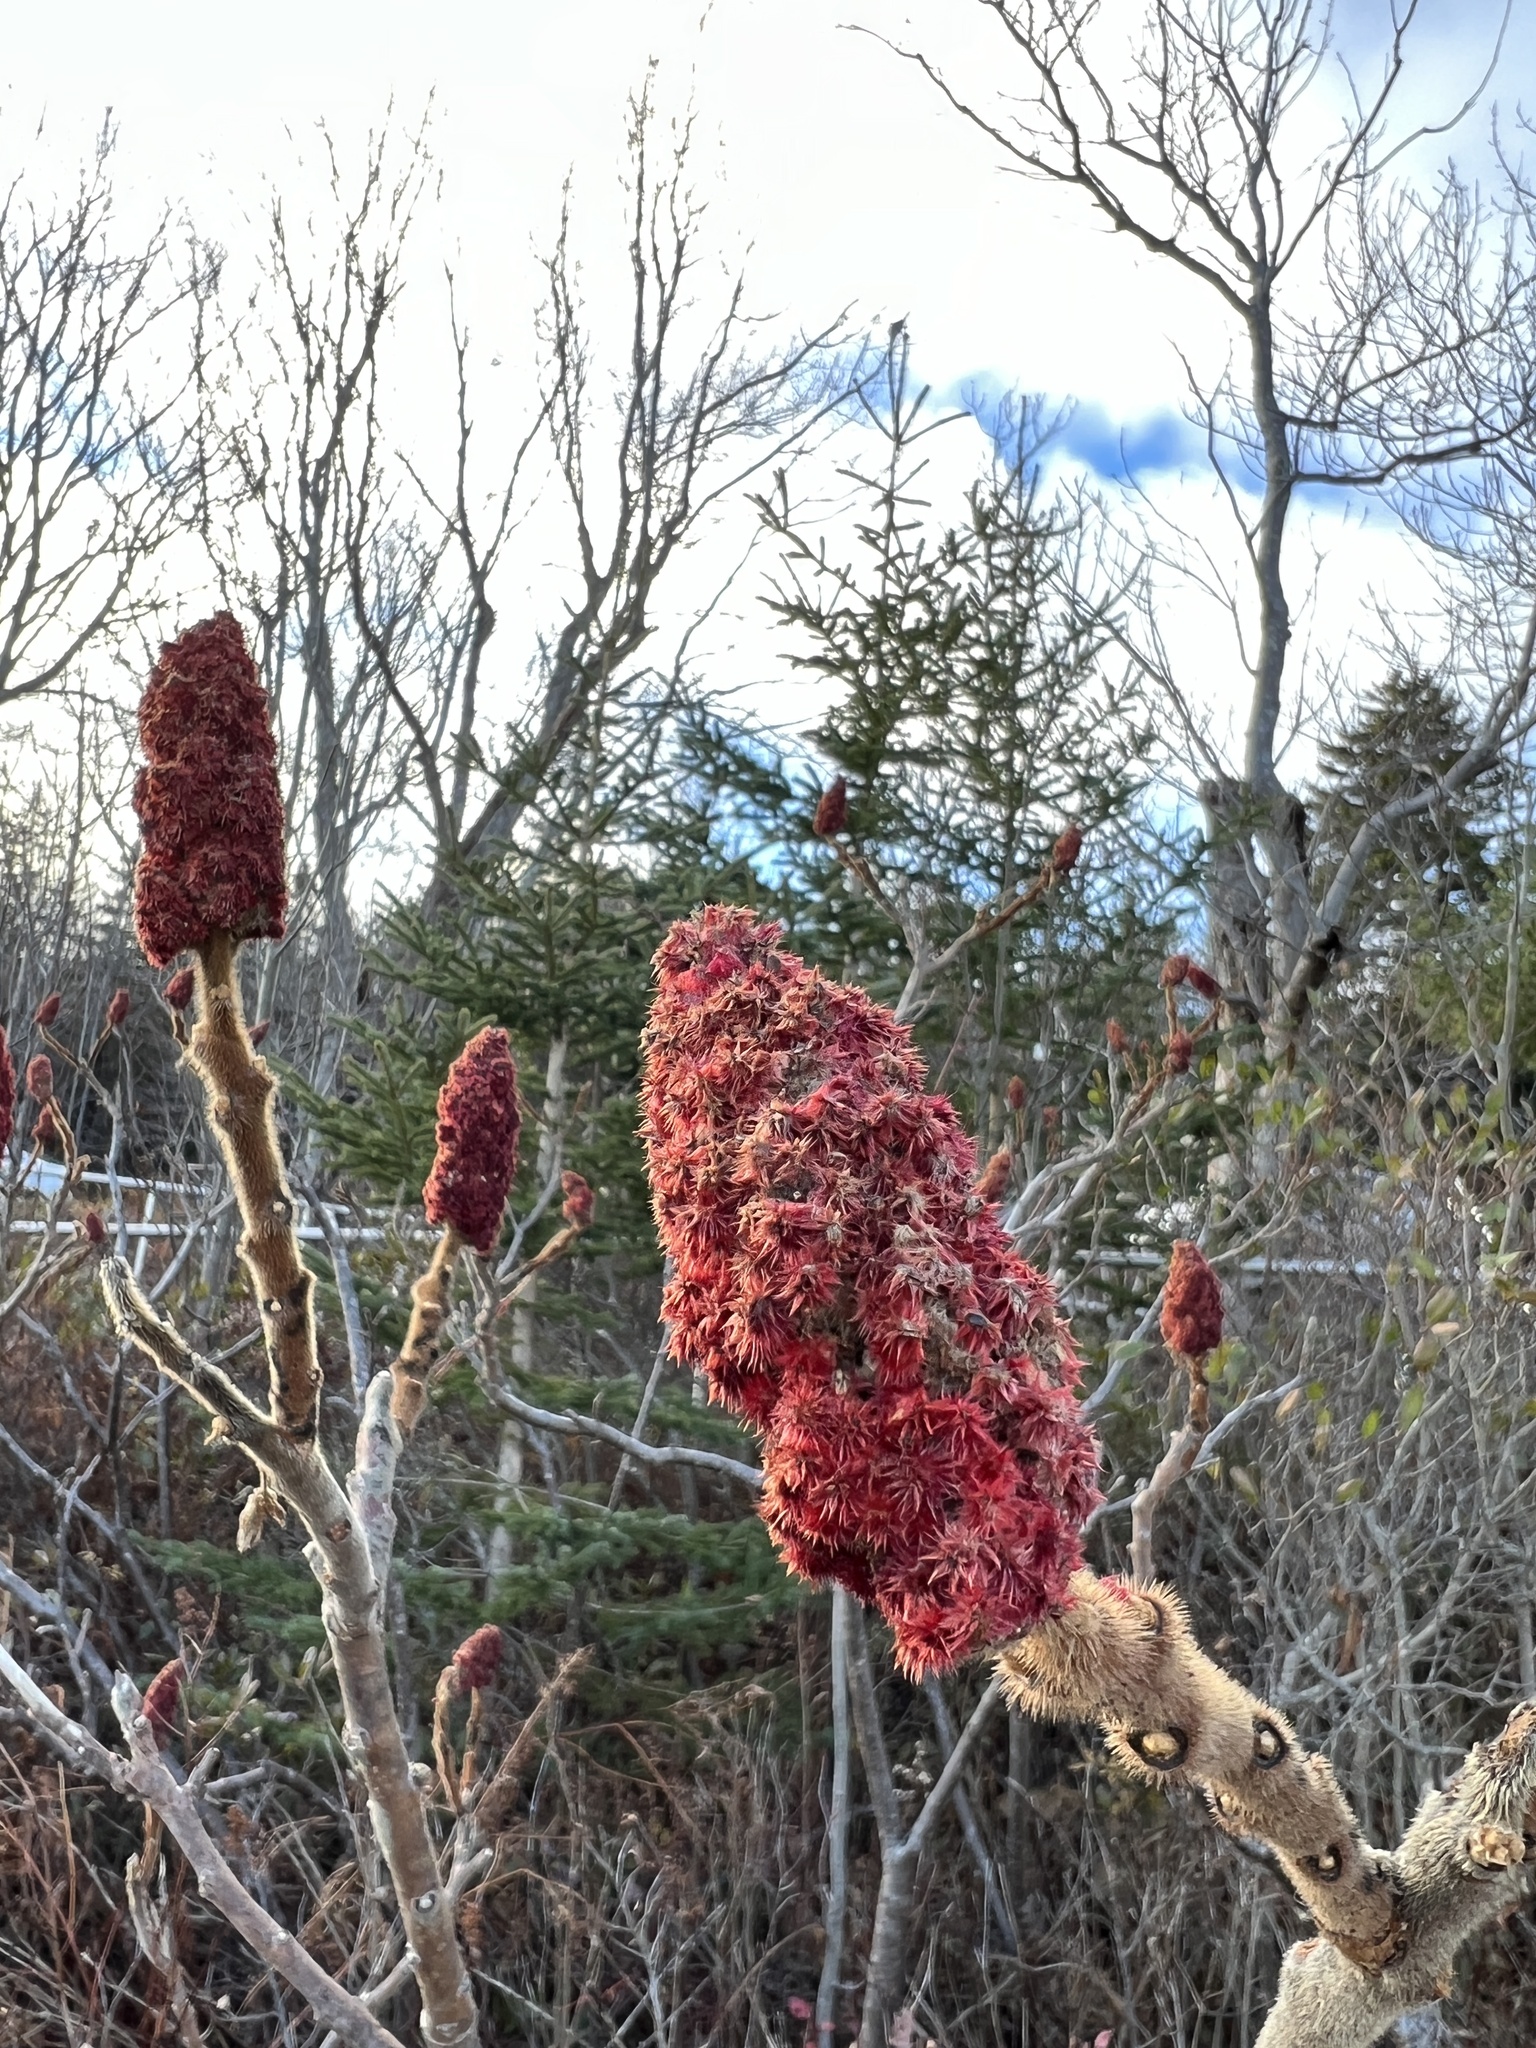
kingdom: Plantae
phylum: Tracheophyta
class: Magnoliopsida
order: Sapindales
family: Anacardiaceae
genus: Rhus
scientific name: Rhus typhina
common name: Staghorn sumac
